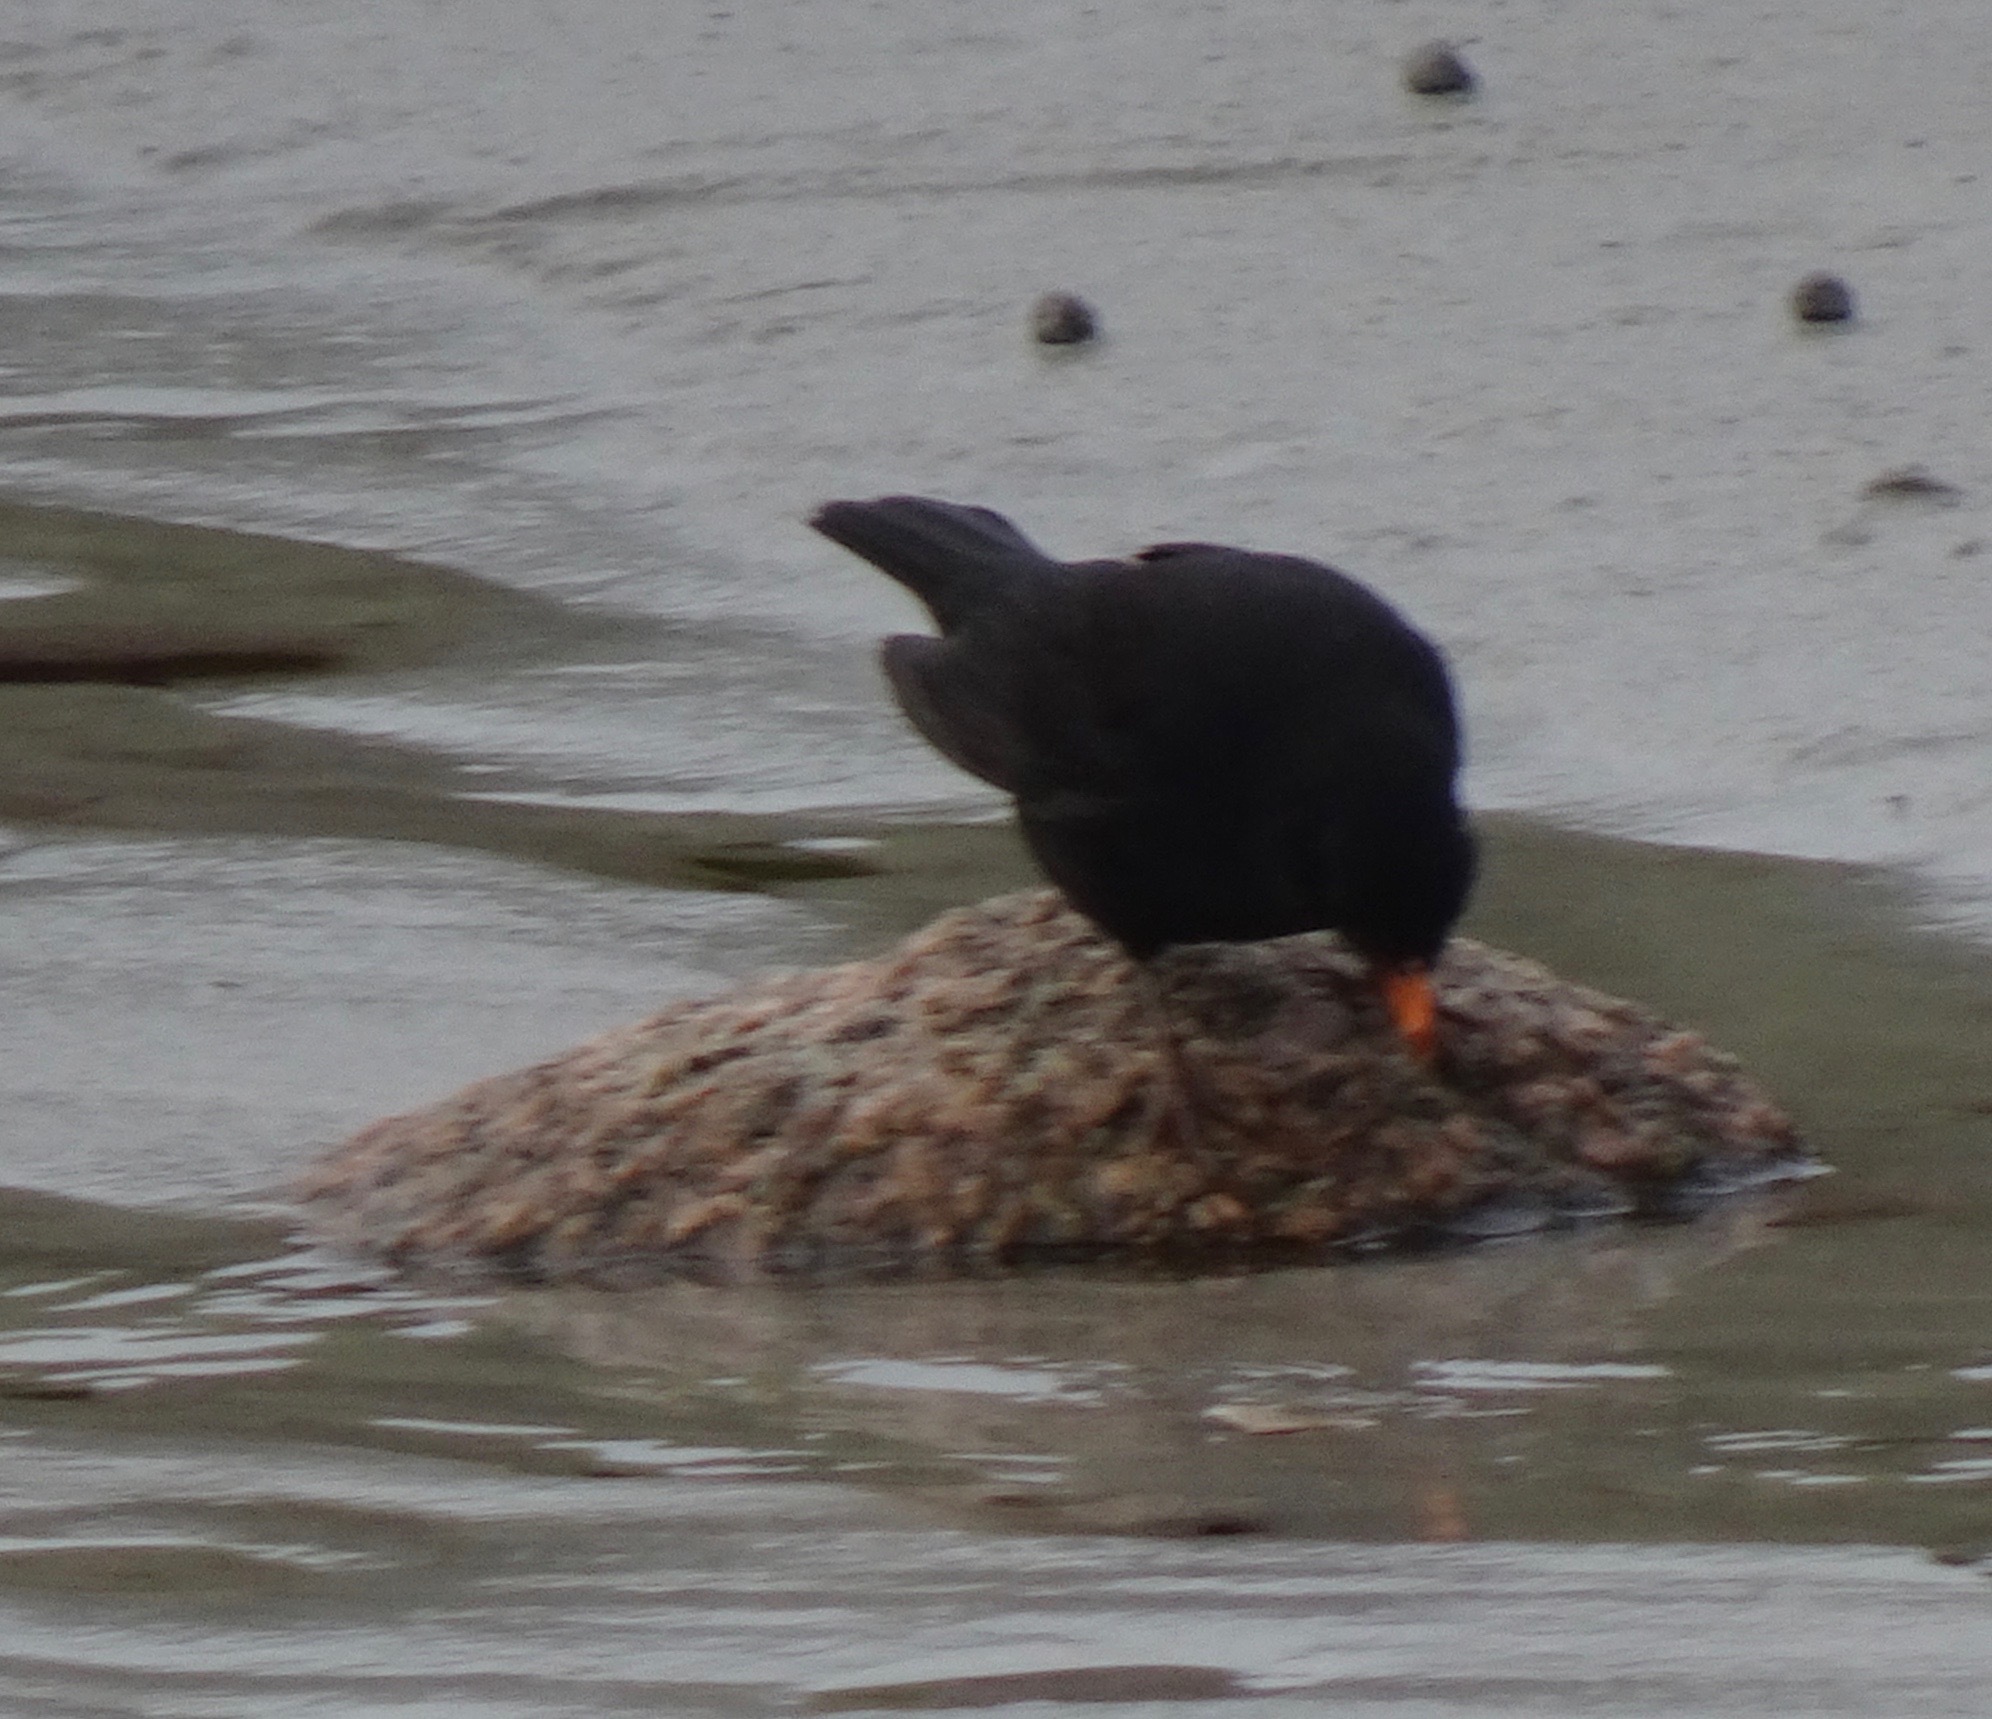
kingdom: Animalia
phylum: Chordata
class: Aves
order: Passeriformes
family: Turdidae
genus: Turdus
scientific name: Turdus merula
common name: Common blackbird
